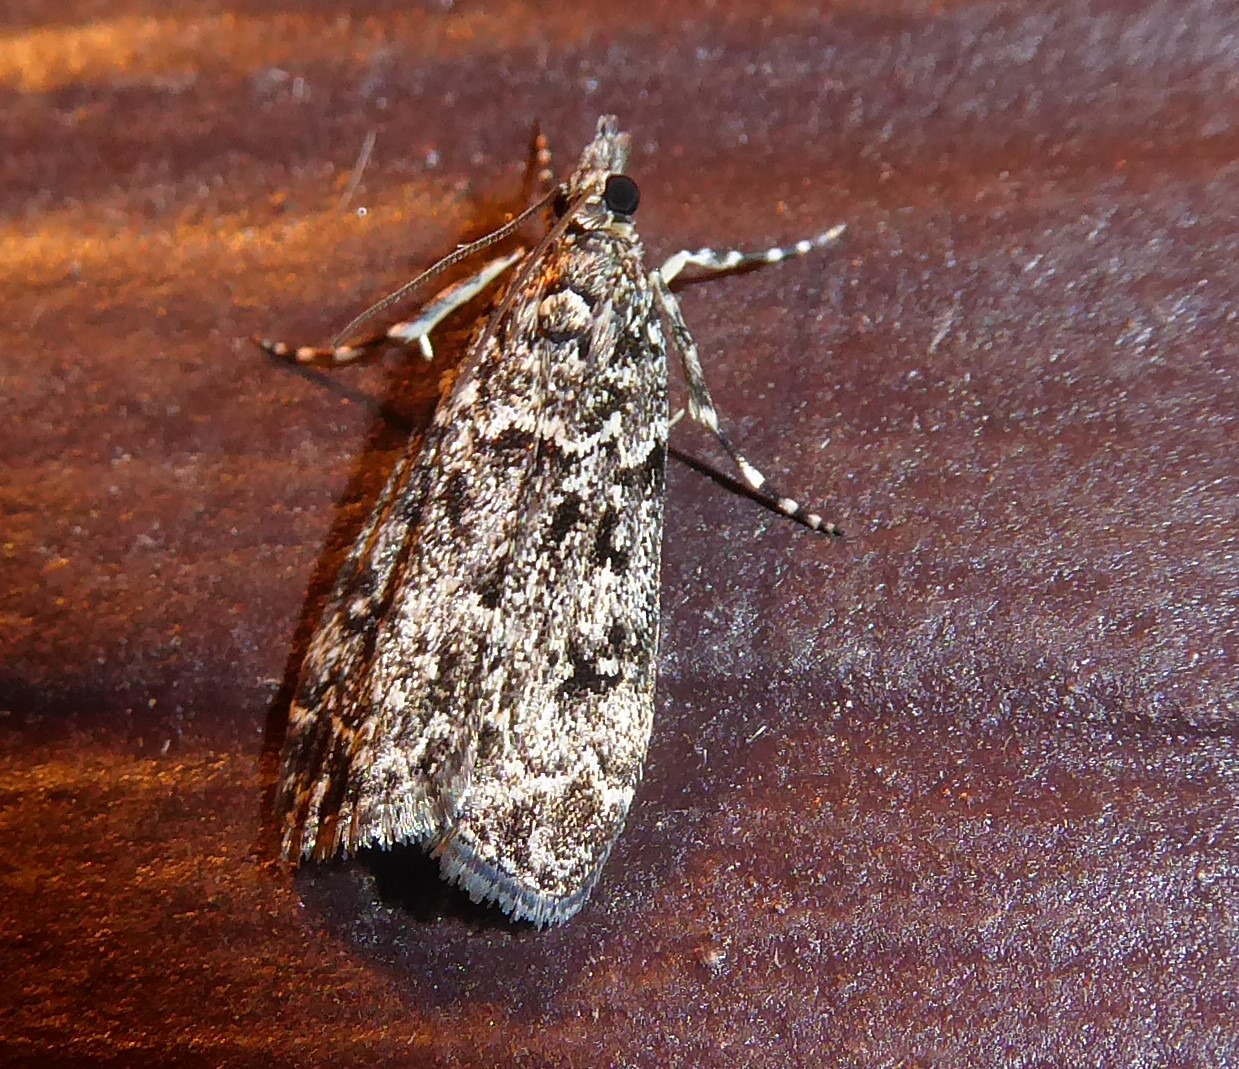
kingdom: Animalia
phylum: Arthropoda
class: Insecta
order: Lepidoptera
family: Crambidae
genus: Eudonia
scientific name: Eudonia philerga
